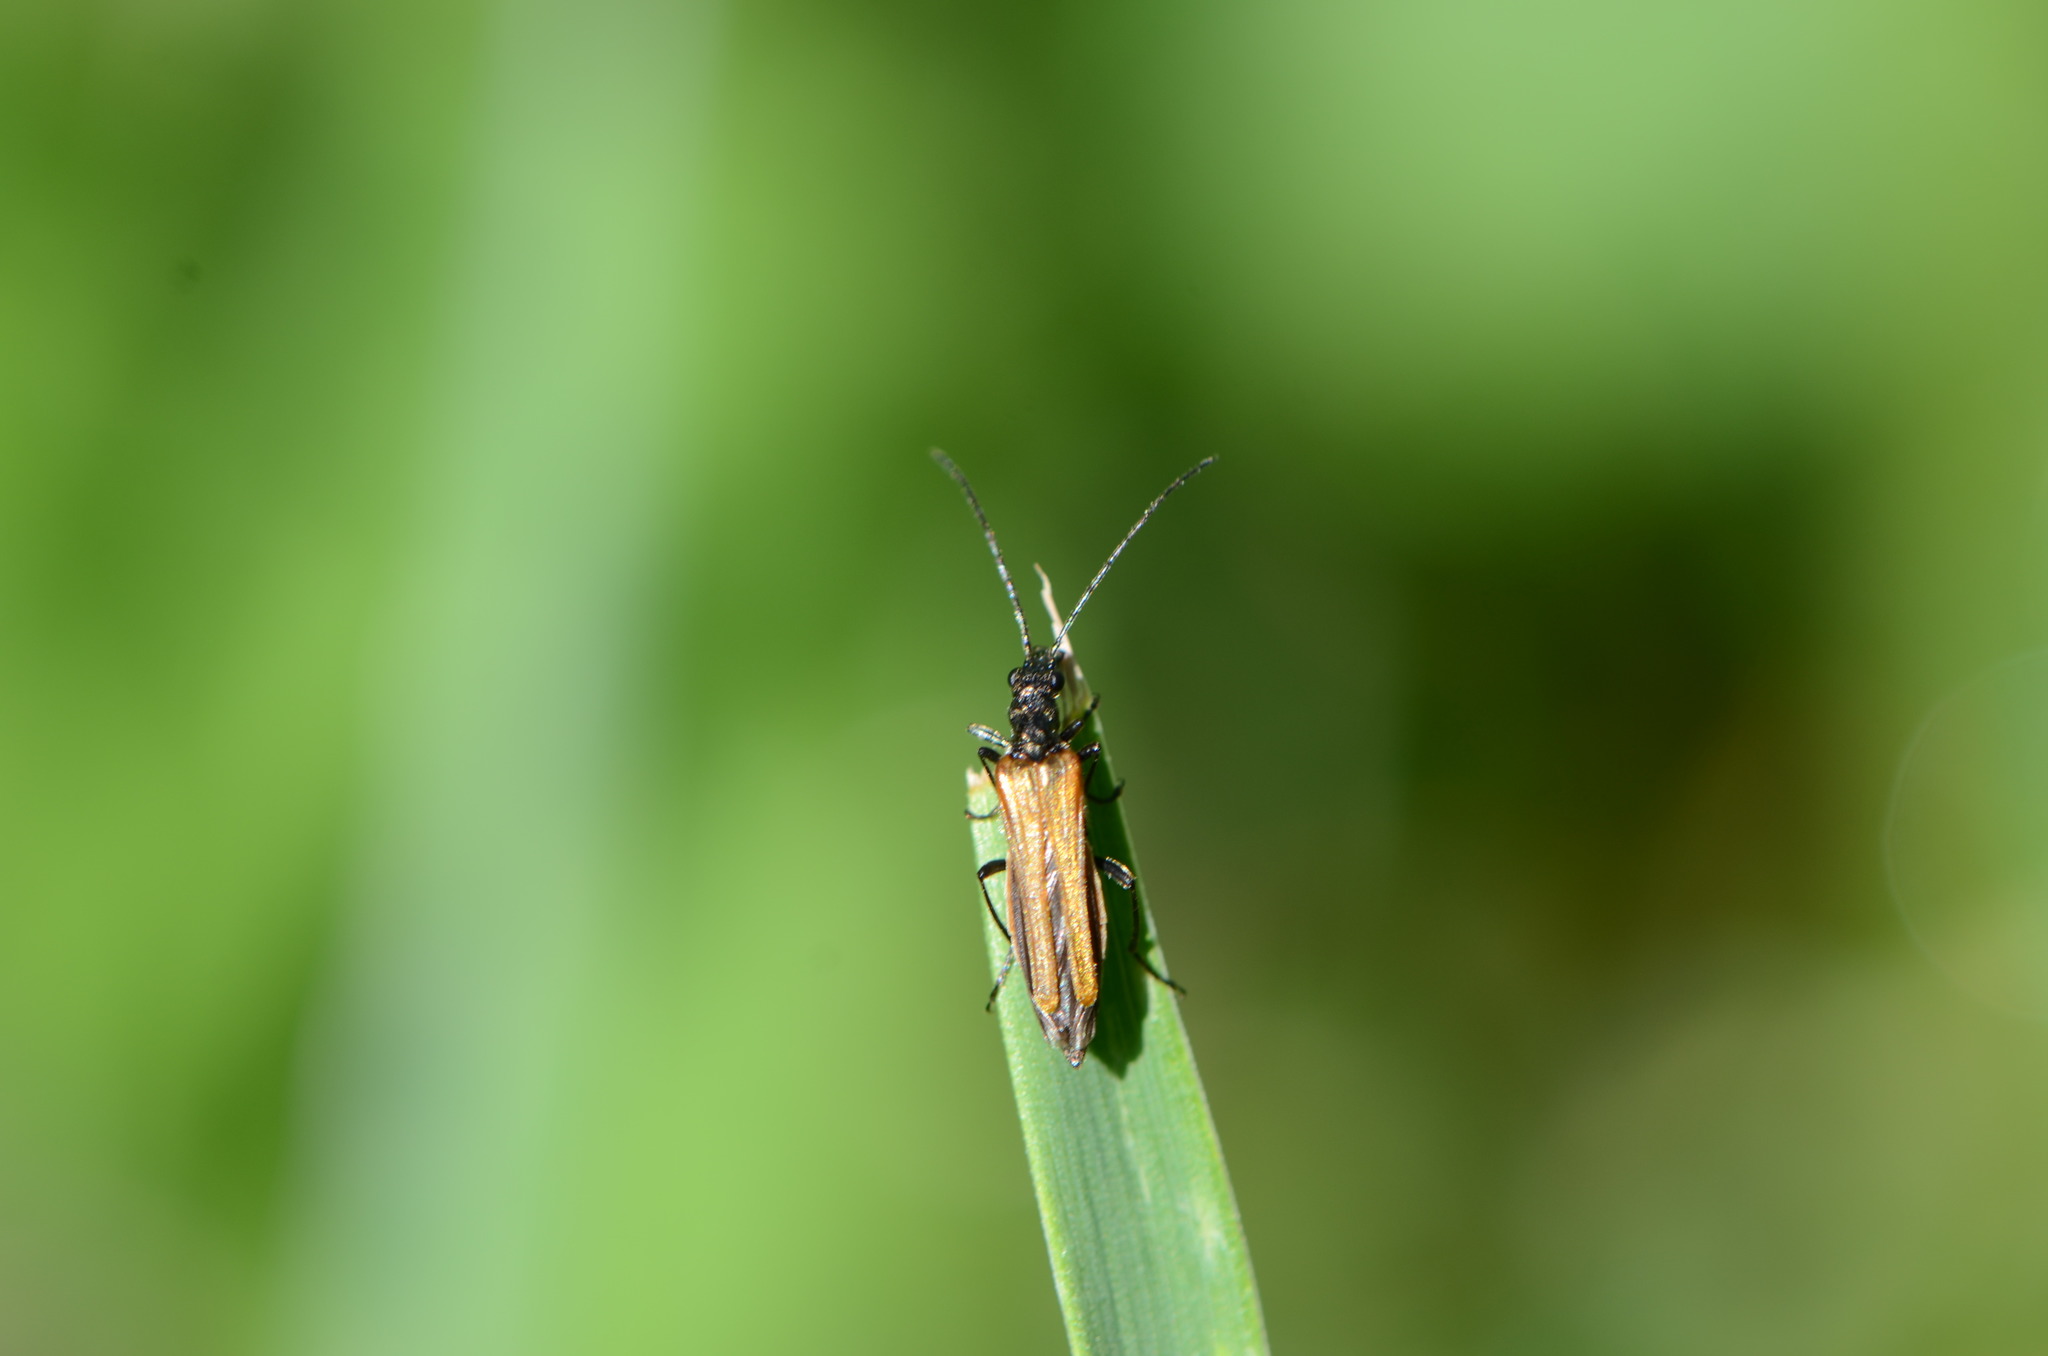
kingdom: Animalia
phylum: Arthropoda
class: Insecta
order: Coleoptera
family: Oedemeridae
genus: Oedemera
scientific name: Oedemera femorata
